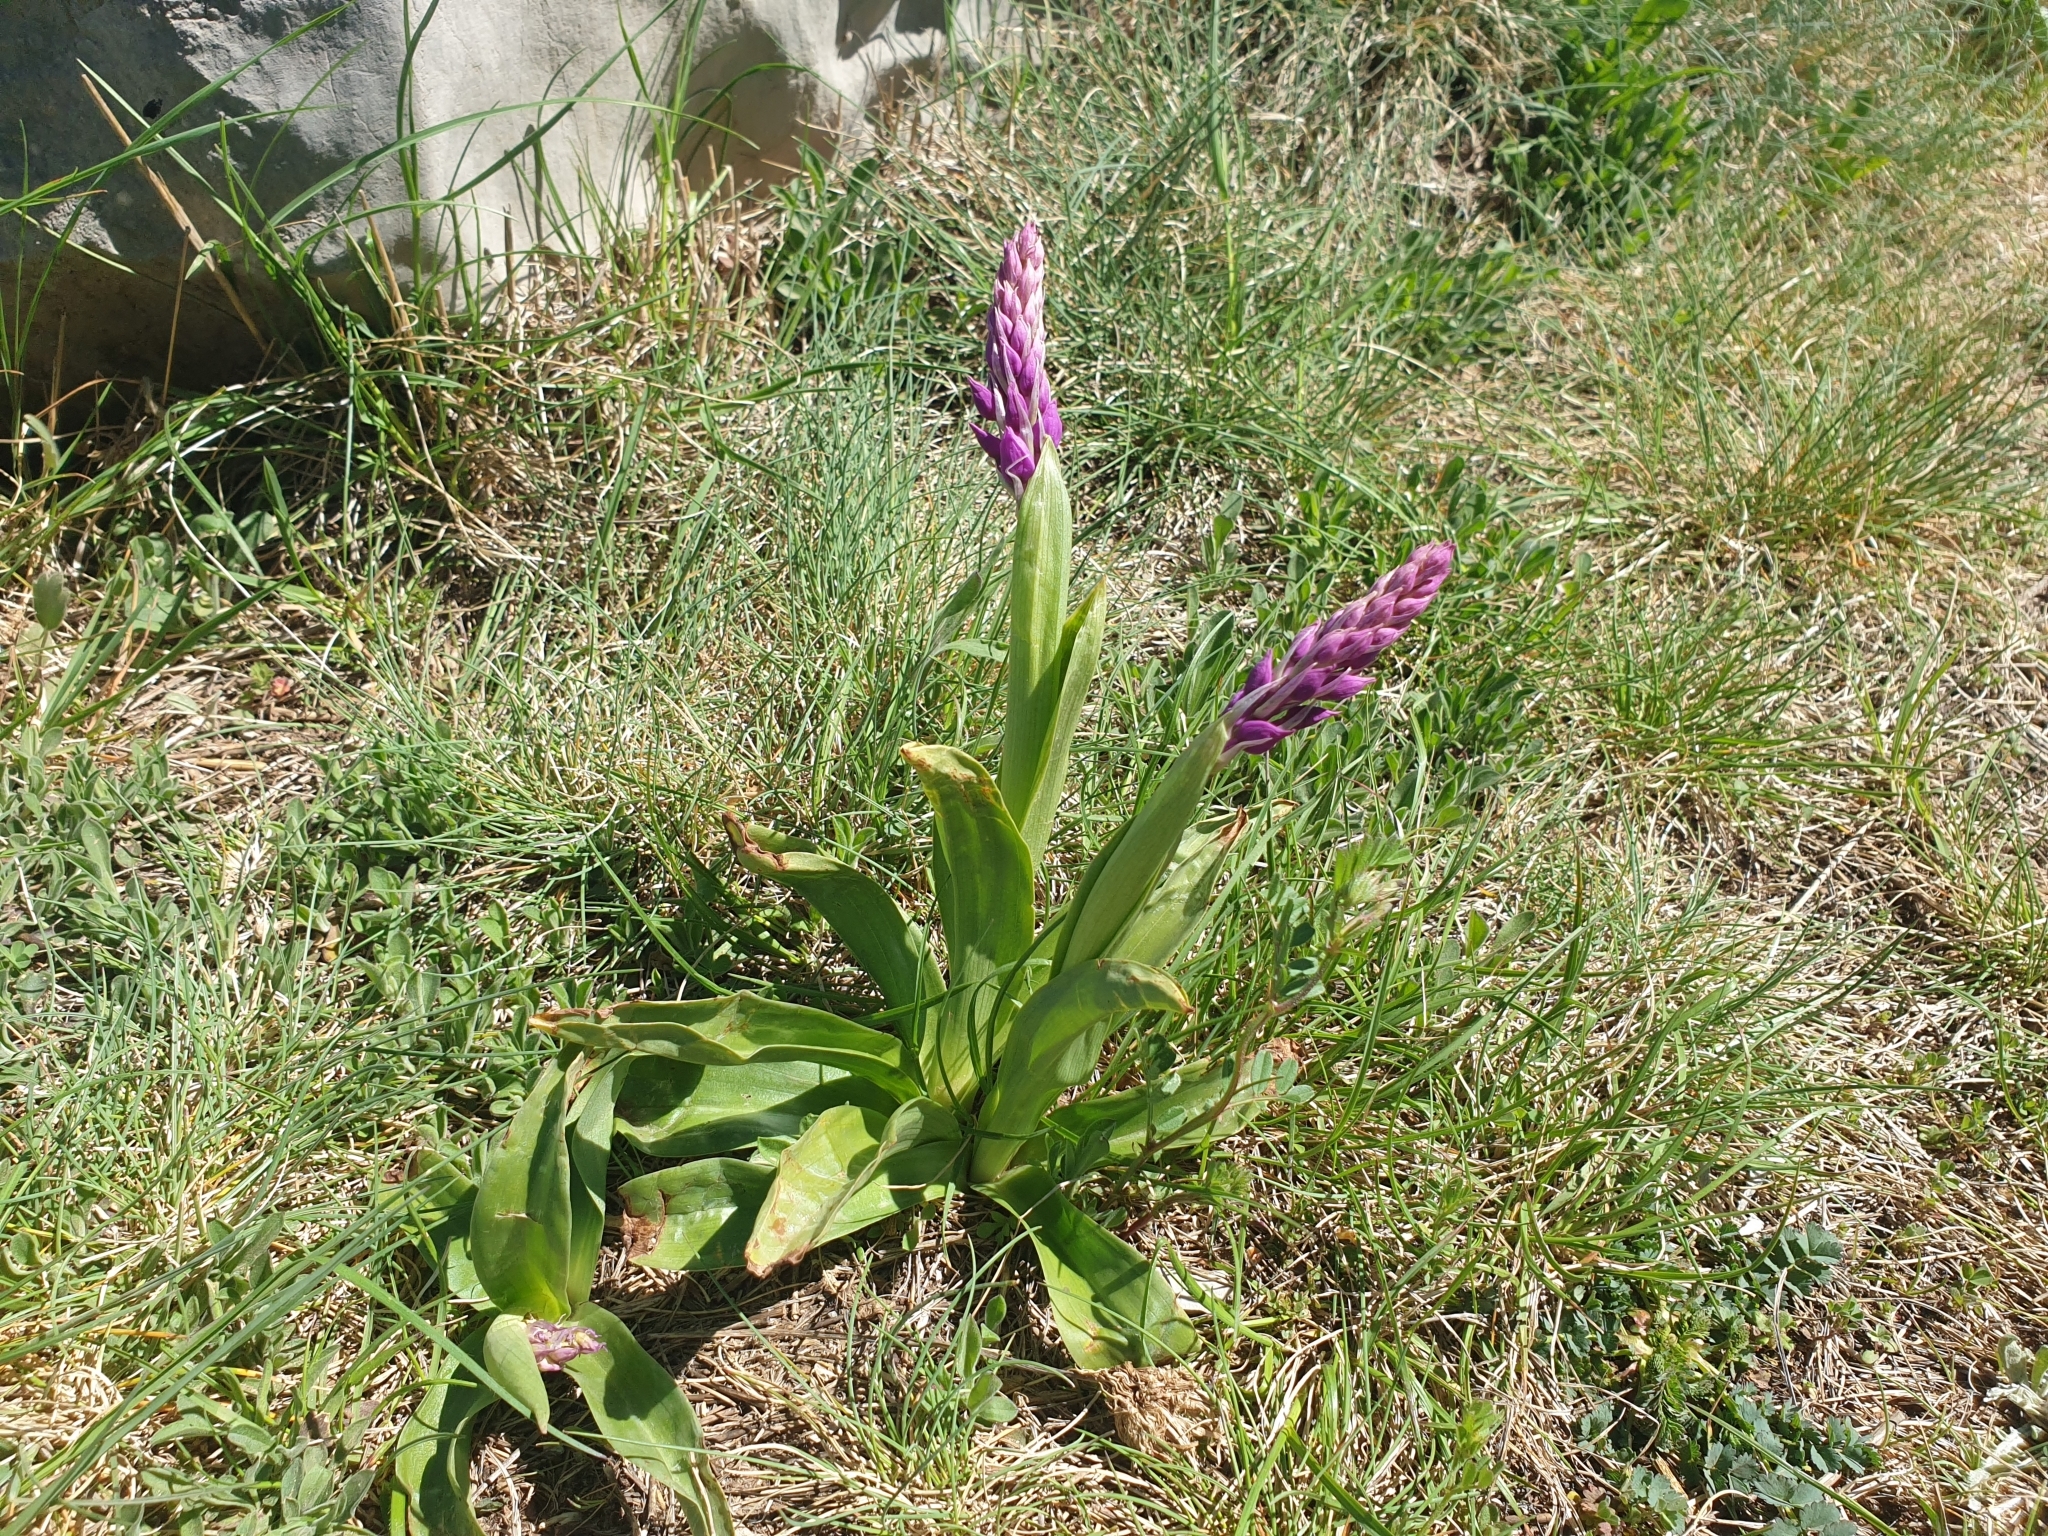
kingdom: Plantae
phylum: Tracheophyta
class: Liliopsida
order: Asparagales
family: Orchidaceae
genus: Orchis
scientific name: Orchis mascula
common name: Early-purple orchid
